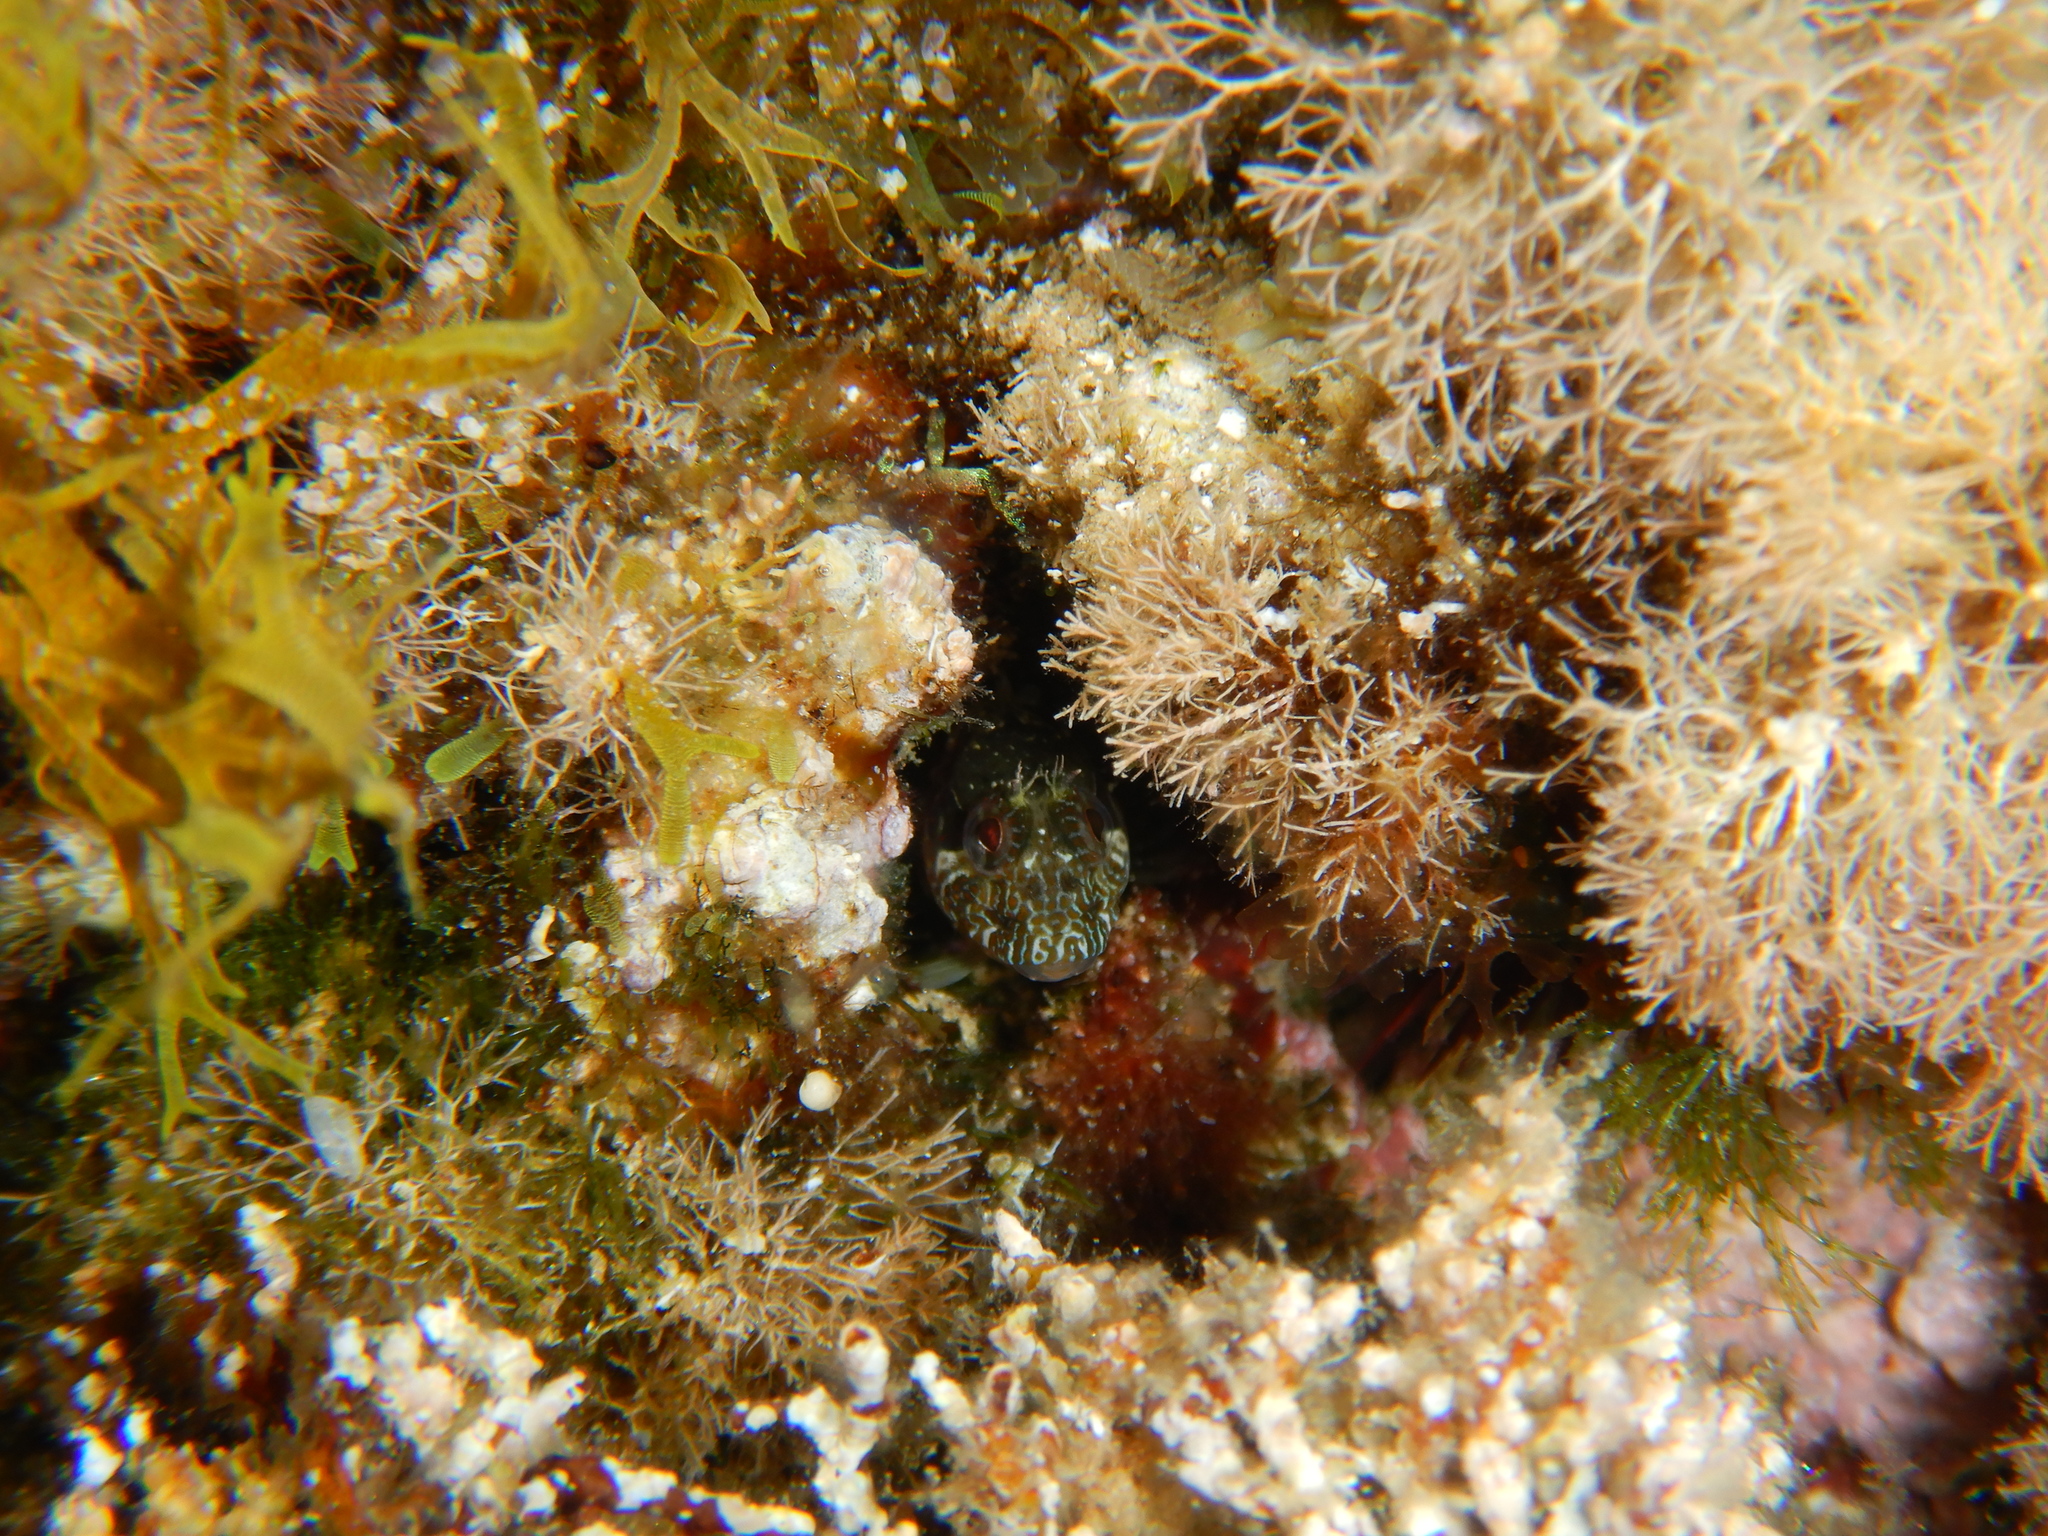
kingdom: Animalia
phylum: Chordata
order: Perciformes
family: Blenniidae
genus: Parablennius
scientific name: Parablennius incognitus
